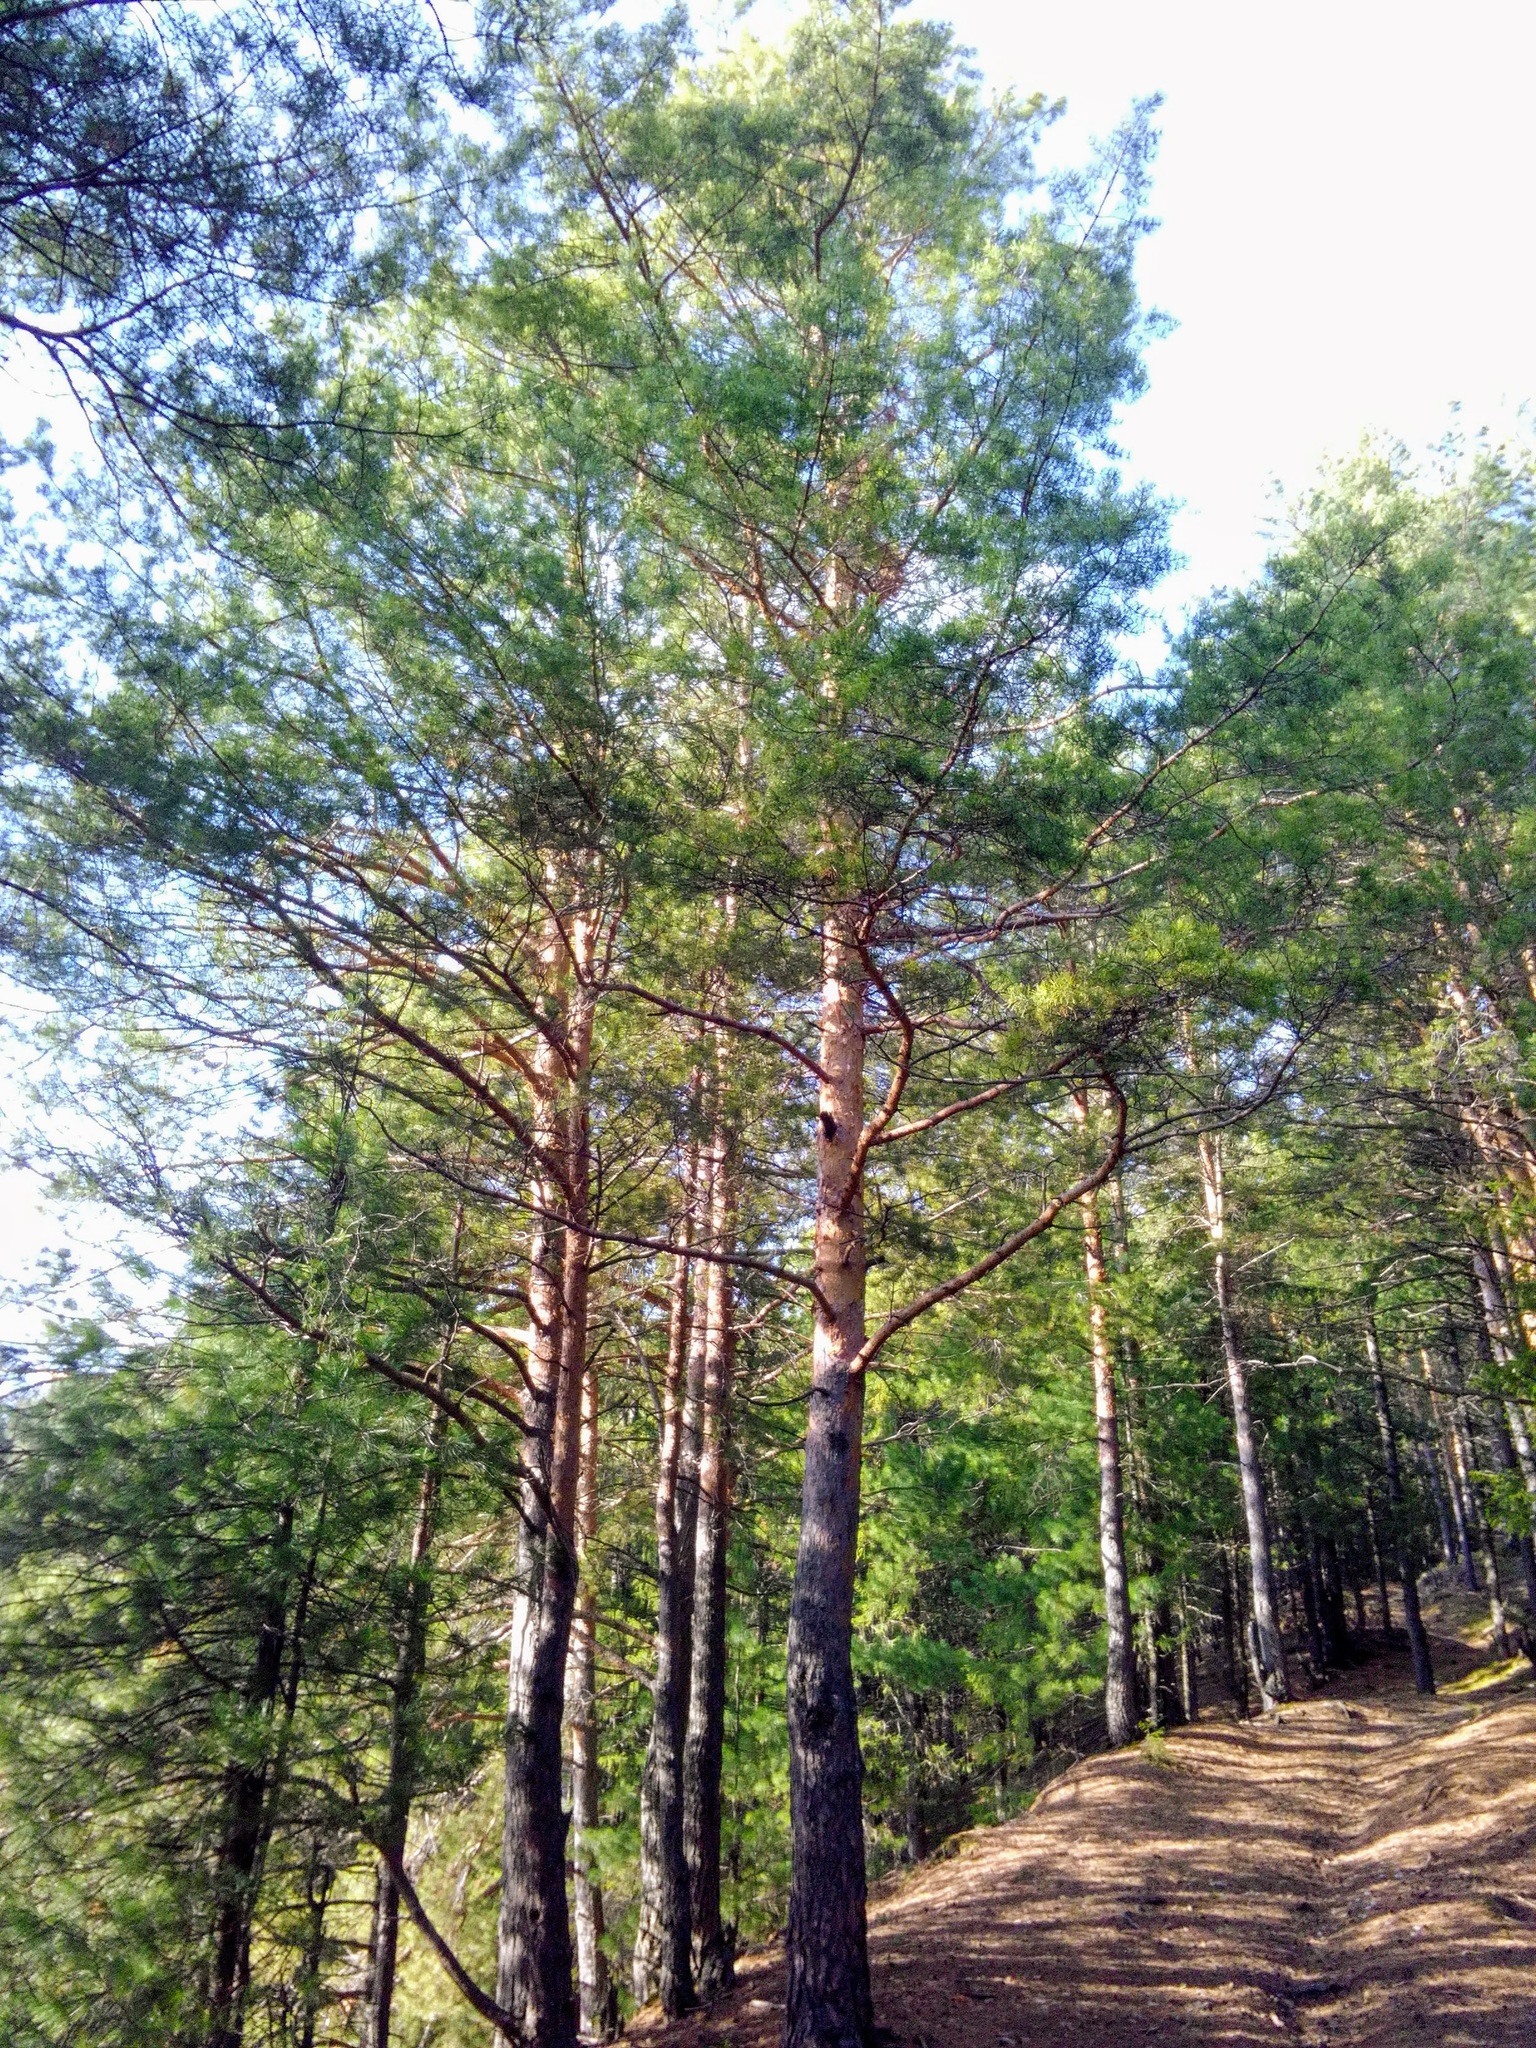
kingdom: Plantae
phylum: Tracheophyta
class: Pinopsida
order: Pinales
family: Pinaceae
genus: Pinus
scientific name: Pinus sylvestris
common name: Scots pine
